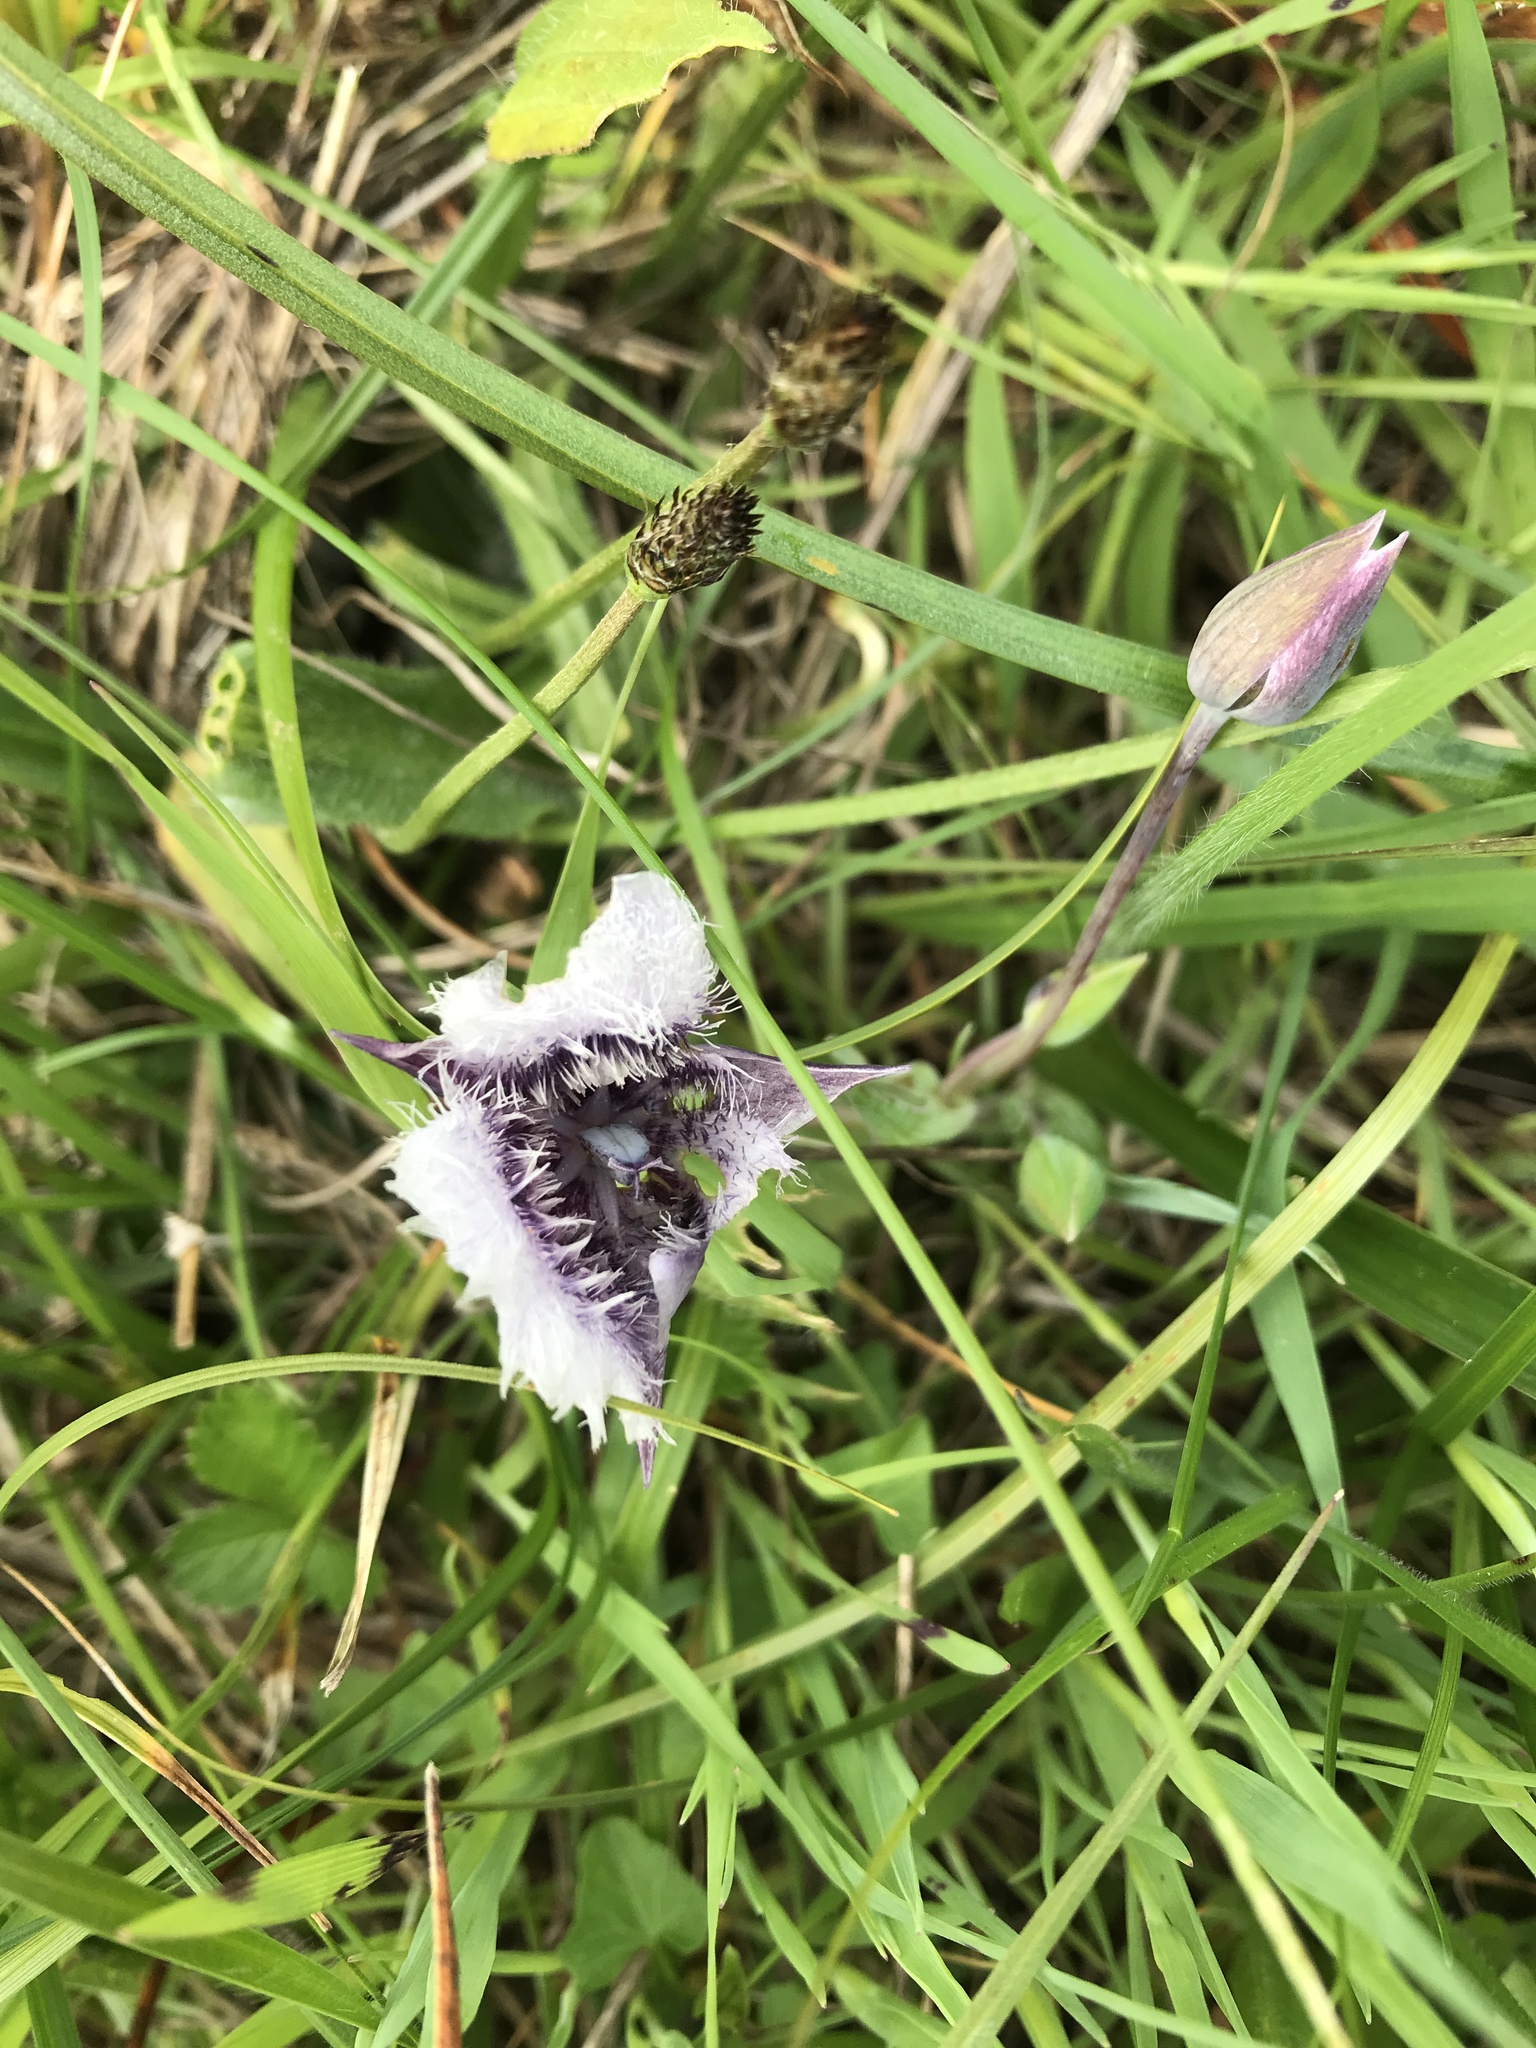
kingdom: Plantae
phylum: Tracheophyta
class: Liliopsida
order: Liliales
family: Liliaceae
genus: Calochortus
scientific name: Calochortus tolmiei
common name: Pussy-ears
